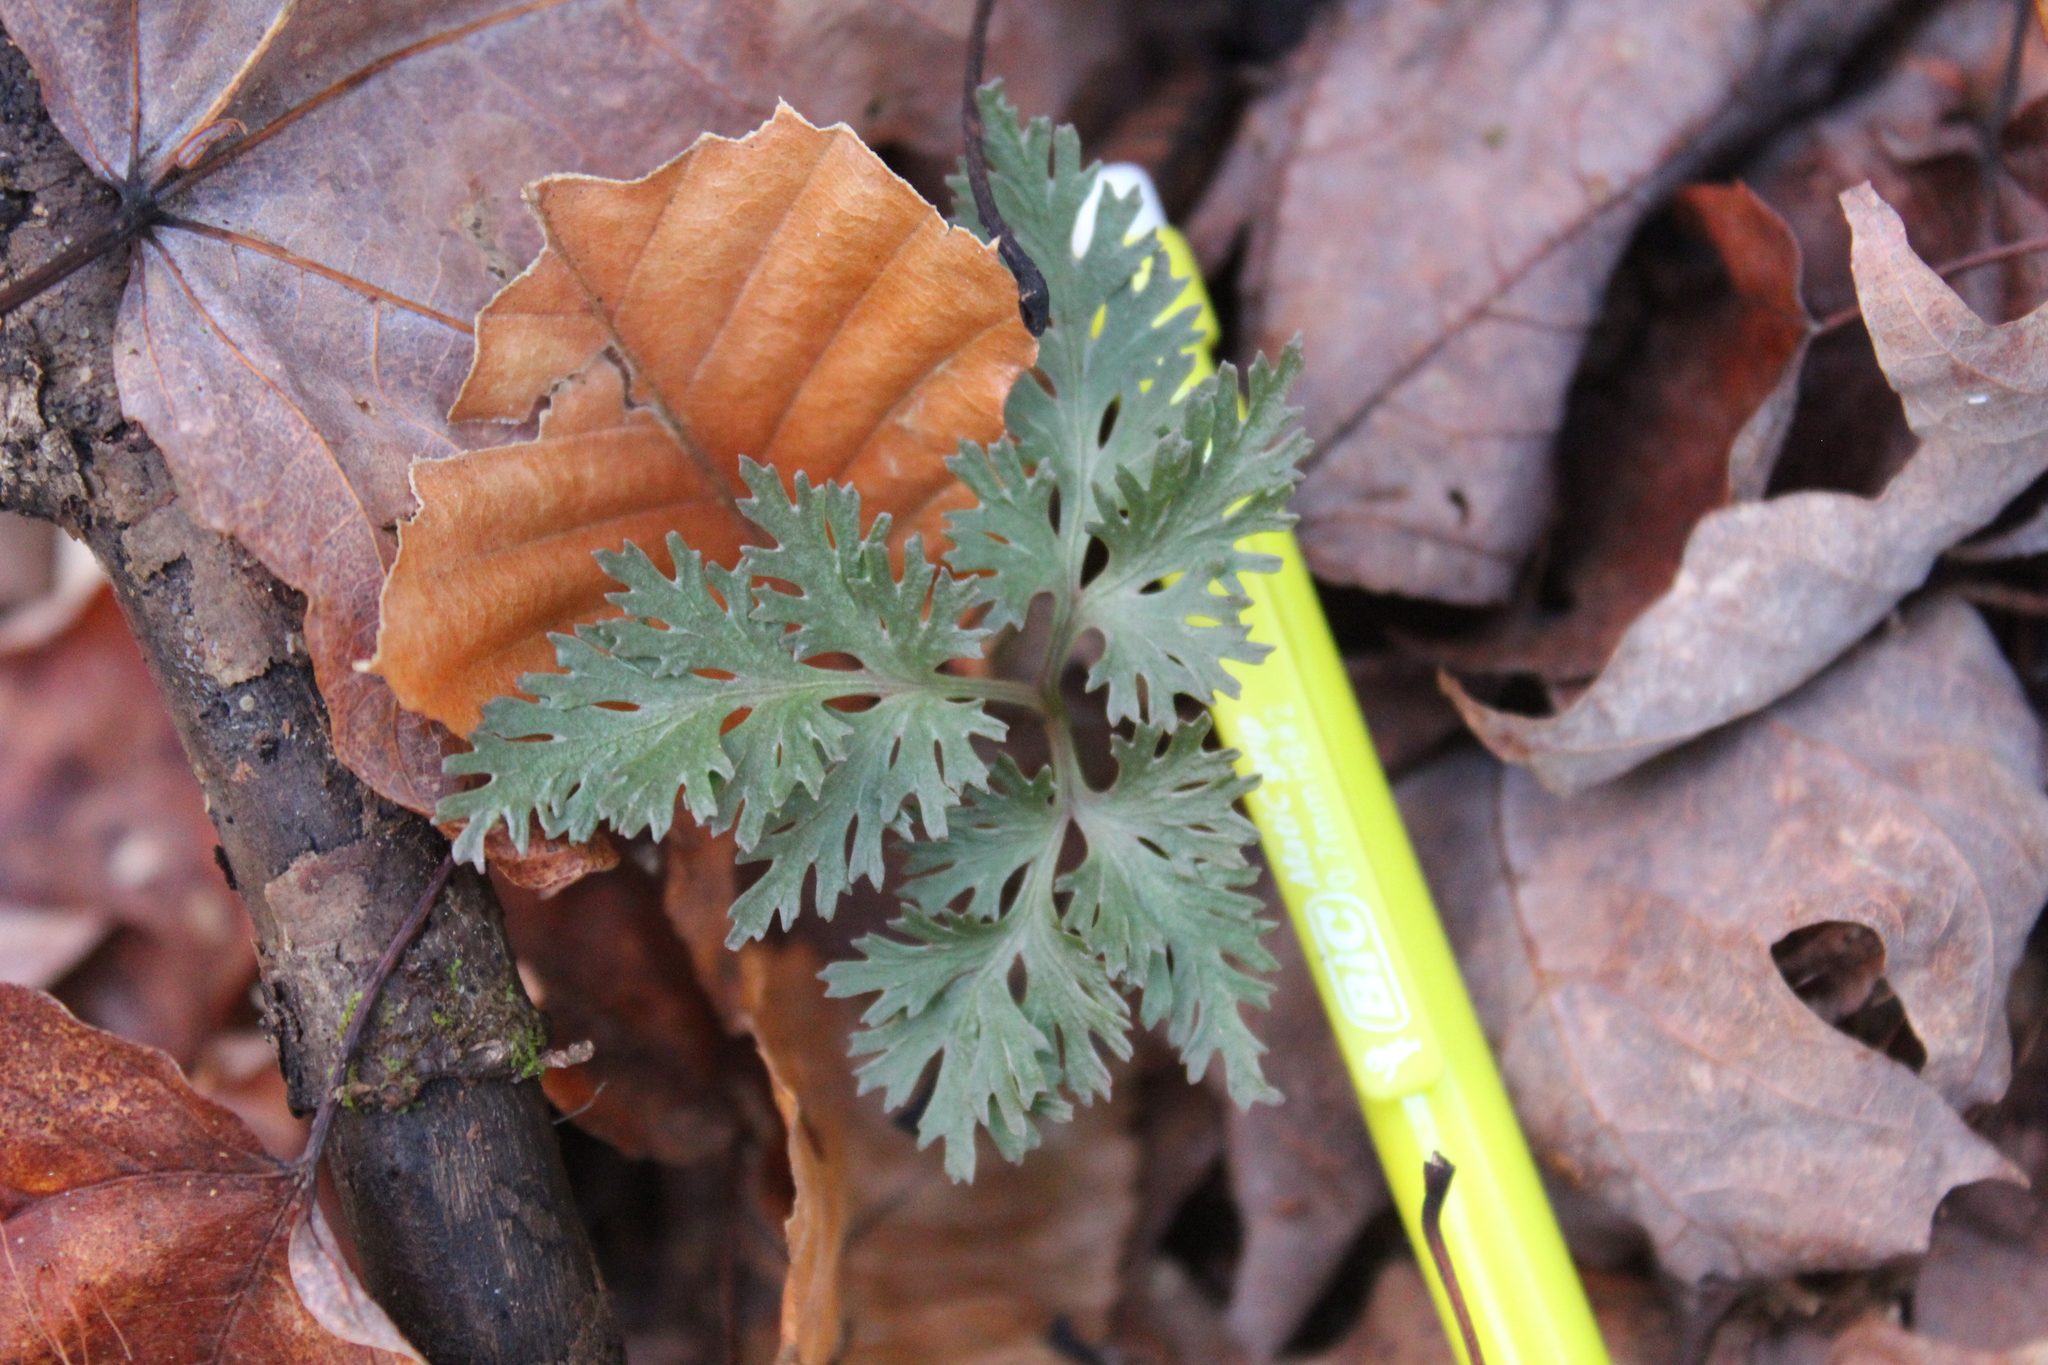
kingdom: Plantae
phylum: Tracheophyta
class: Polypodiopsida
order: Ophioglossales
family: Ophioglossaceae
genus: Sceptridium
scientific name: Sceptridium dissectum
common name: Cut-leaved grapefern
